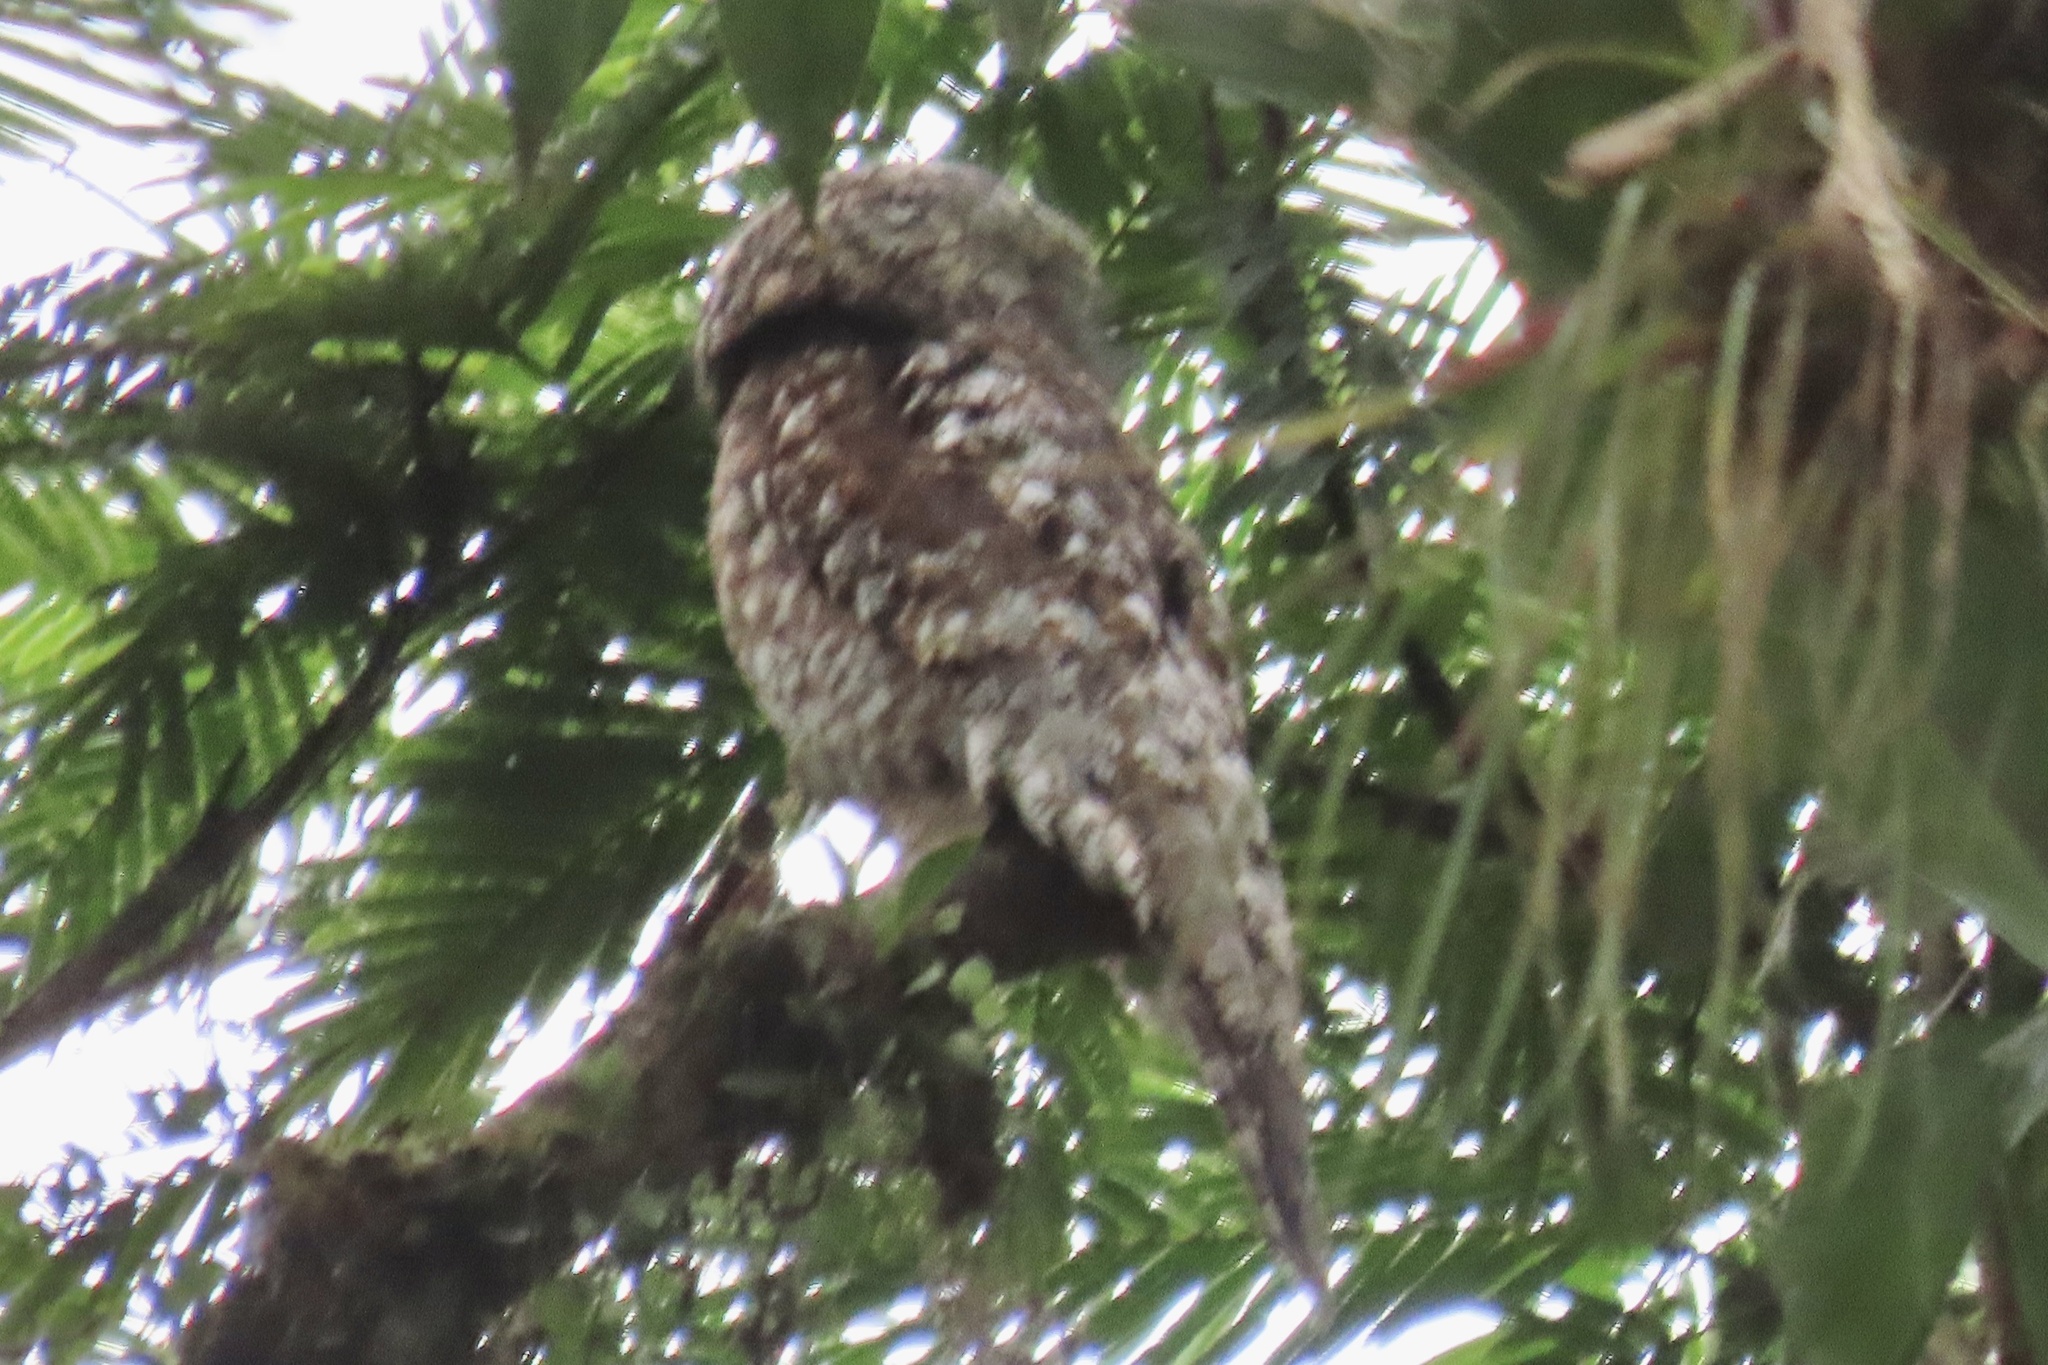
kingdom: Animalia
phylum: Chordata
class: Aves
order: Nyctibiiformes
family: Nyctibiidae
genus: Nyctibius
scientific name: Nyctibius grandis
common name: Great potoo
